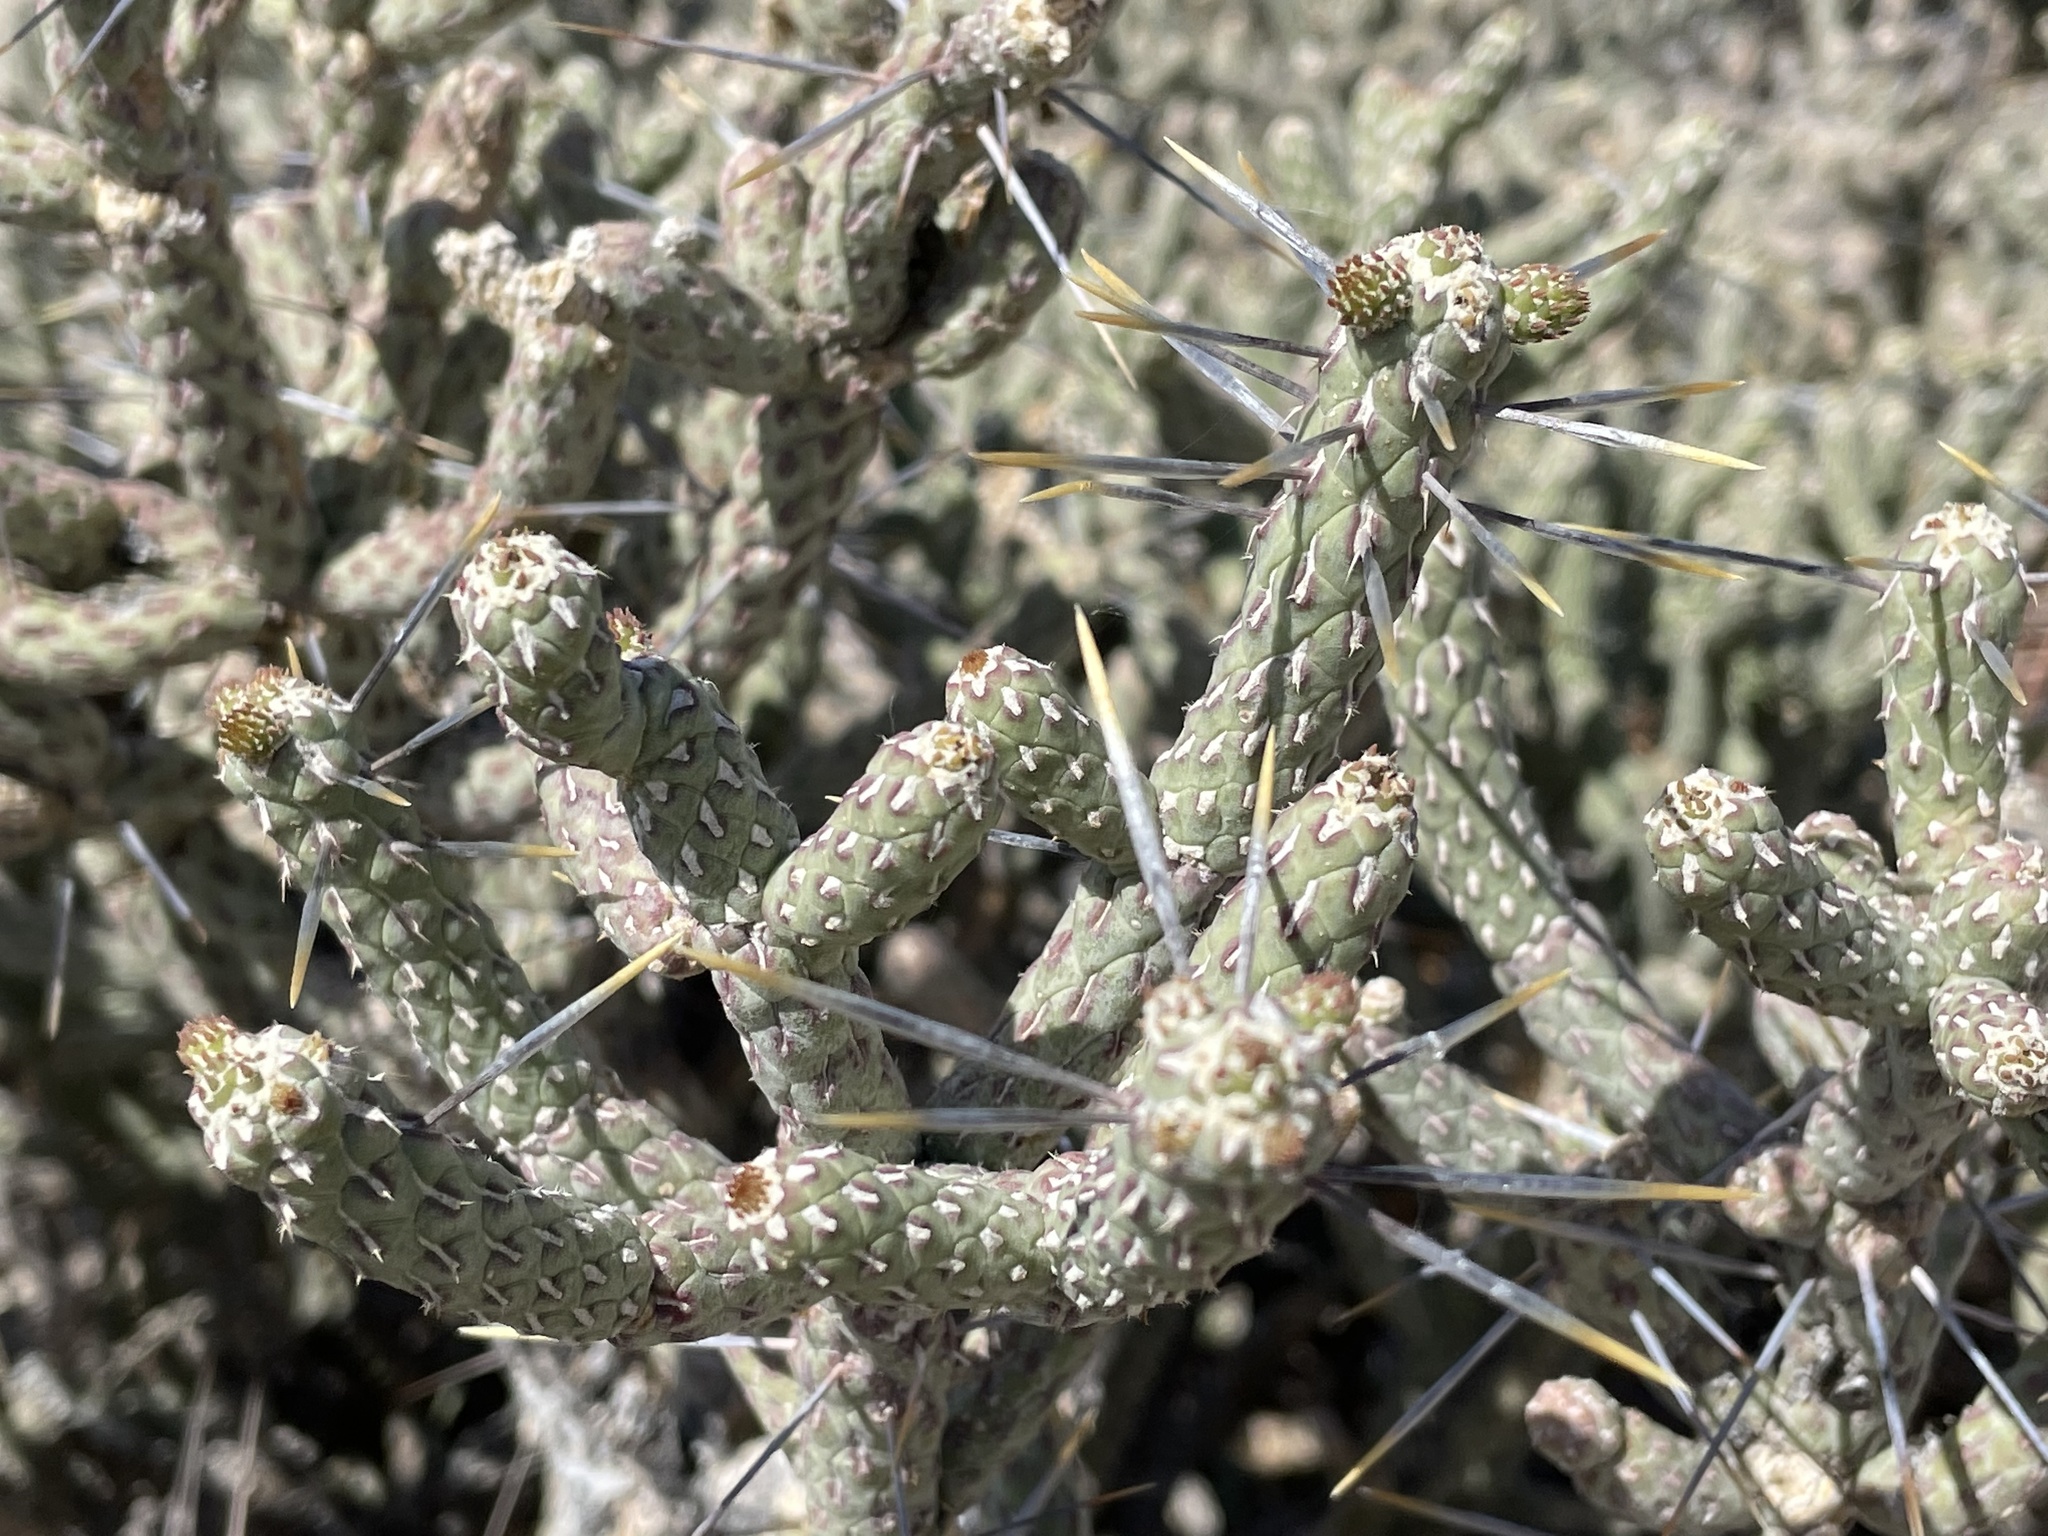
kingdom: Plantae
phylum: Tracheophyta
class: Magnoliopsida
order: Caryophyllales
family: Cactaceae
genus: Cylindropuntia
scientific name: Cylindropuntia ramosissima
